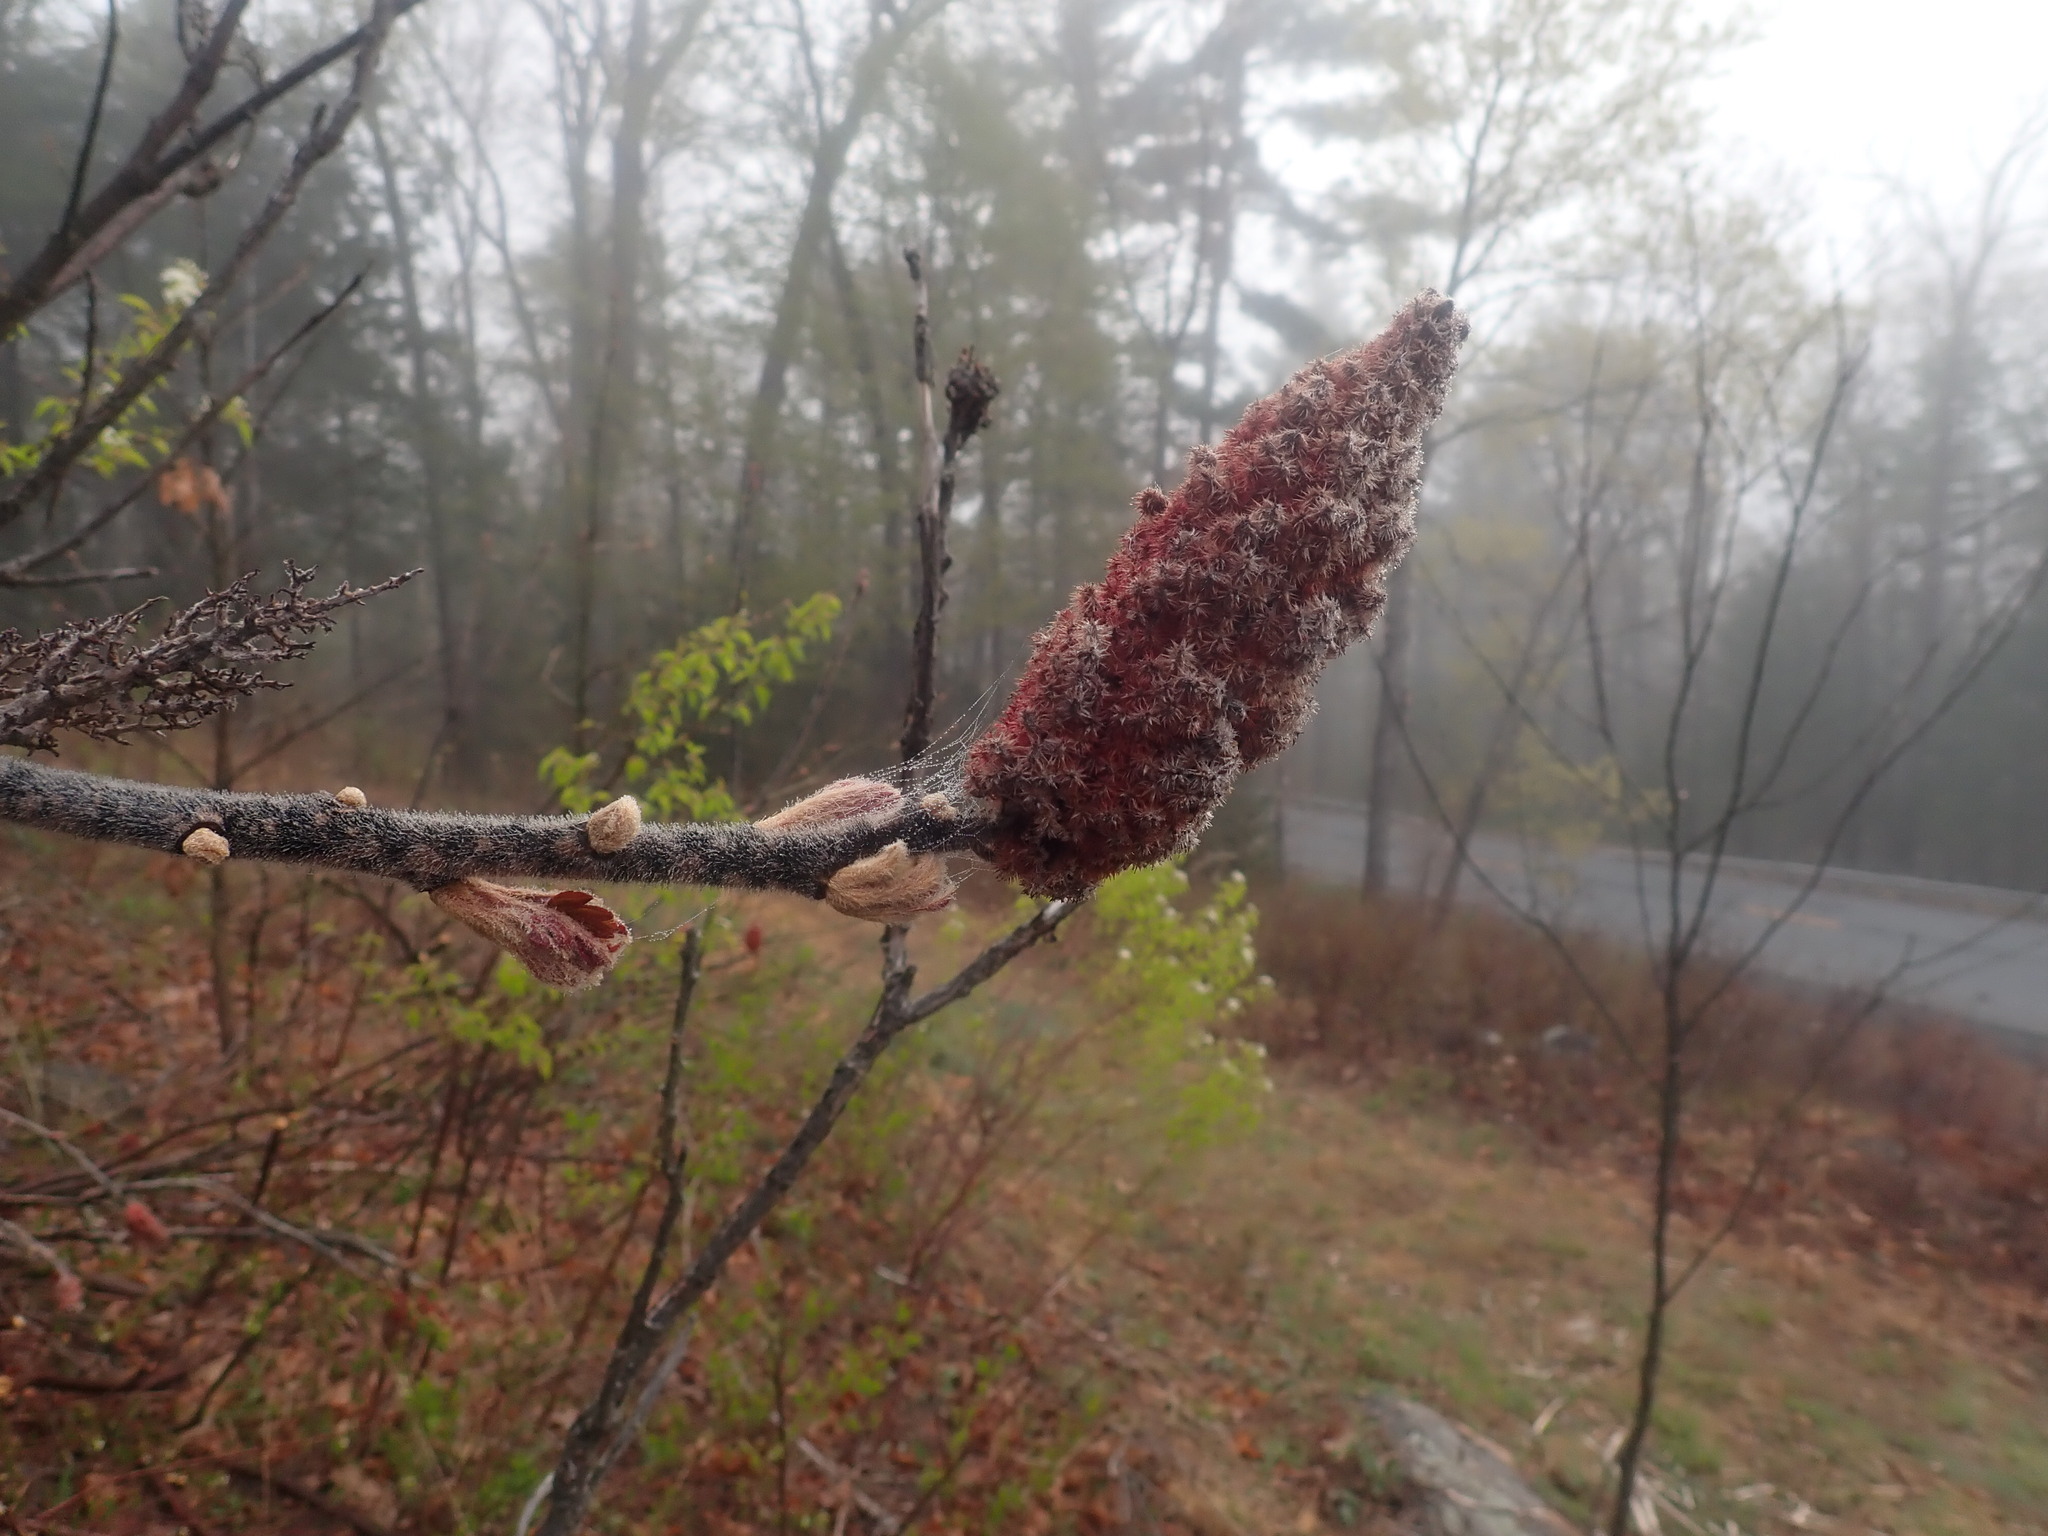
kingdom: Plantae
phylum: Tracheophyta
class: Magnoliopsida
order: Sapindales
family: Anacardiaceae
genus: Rhus
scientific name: Rhus typhina
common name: Staghorn sumac
